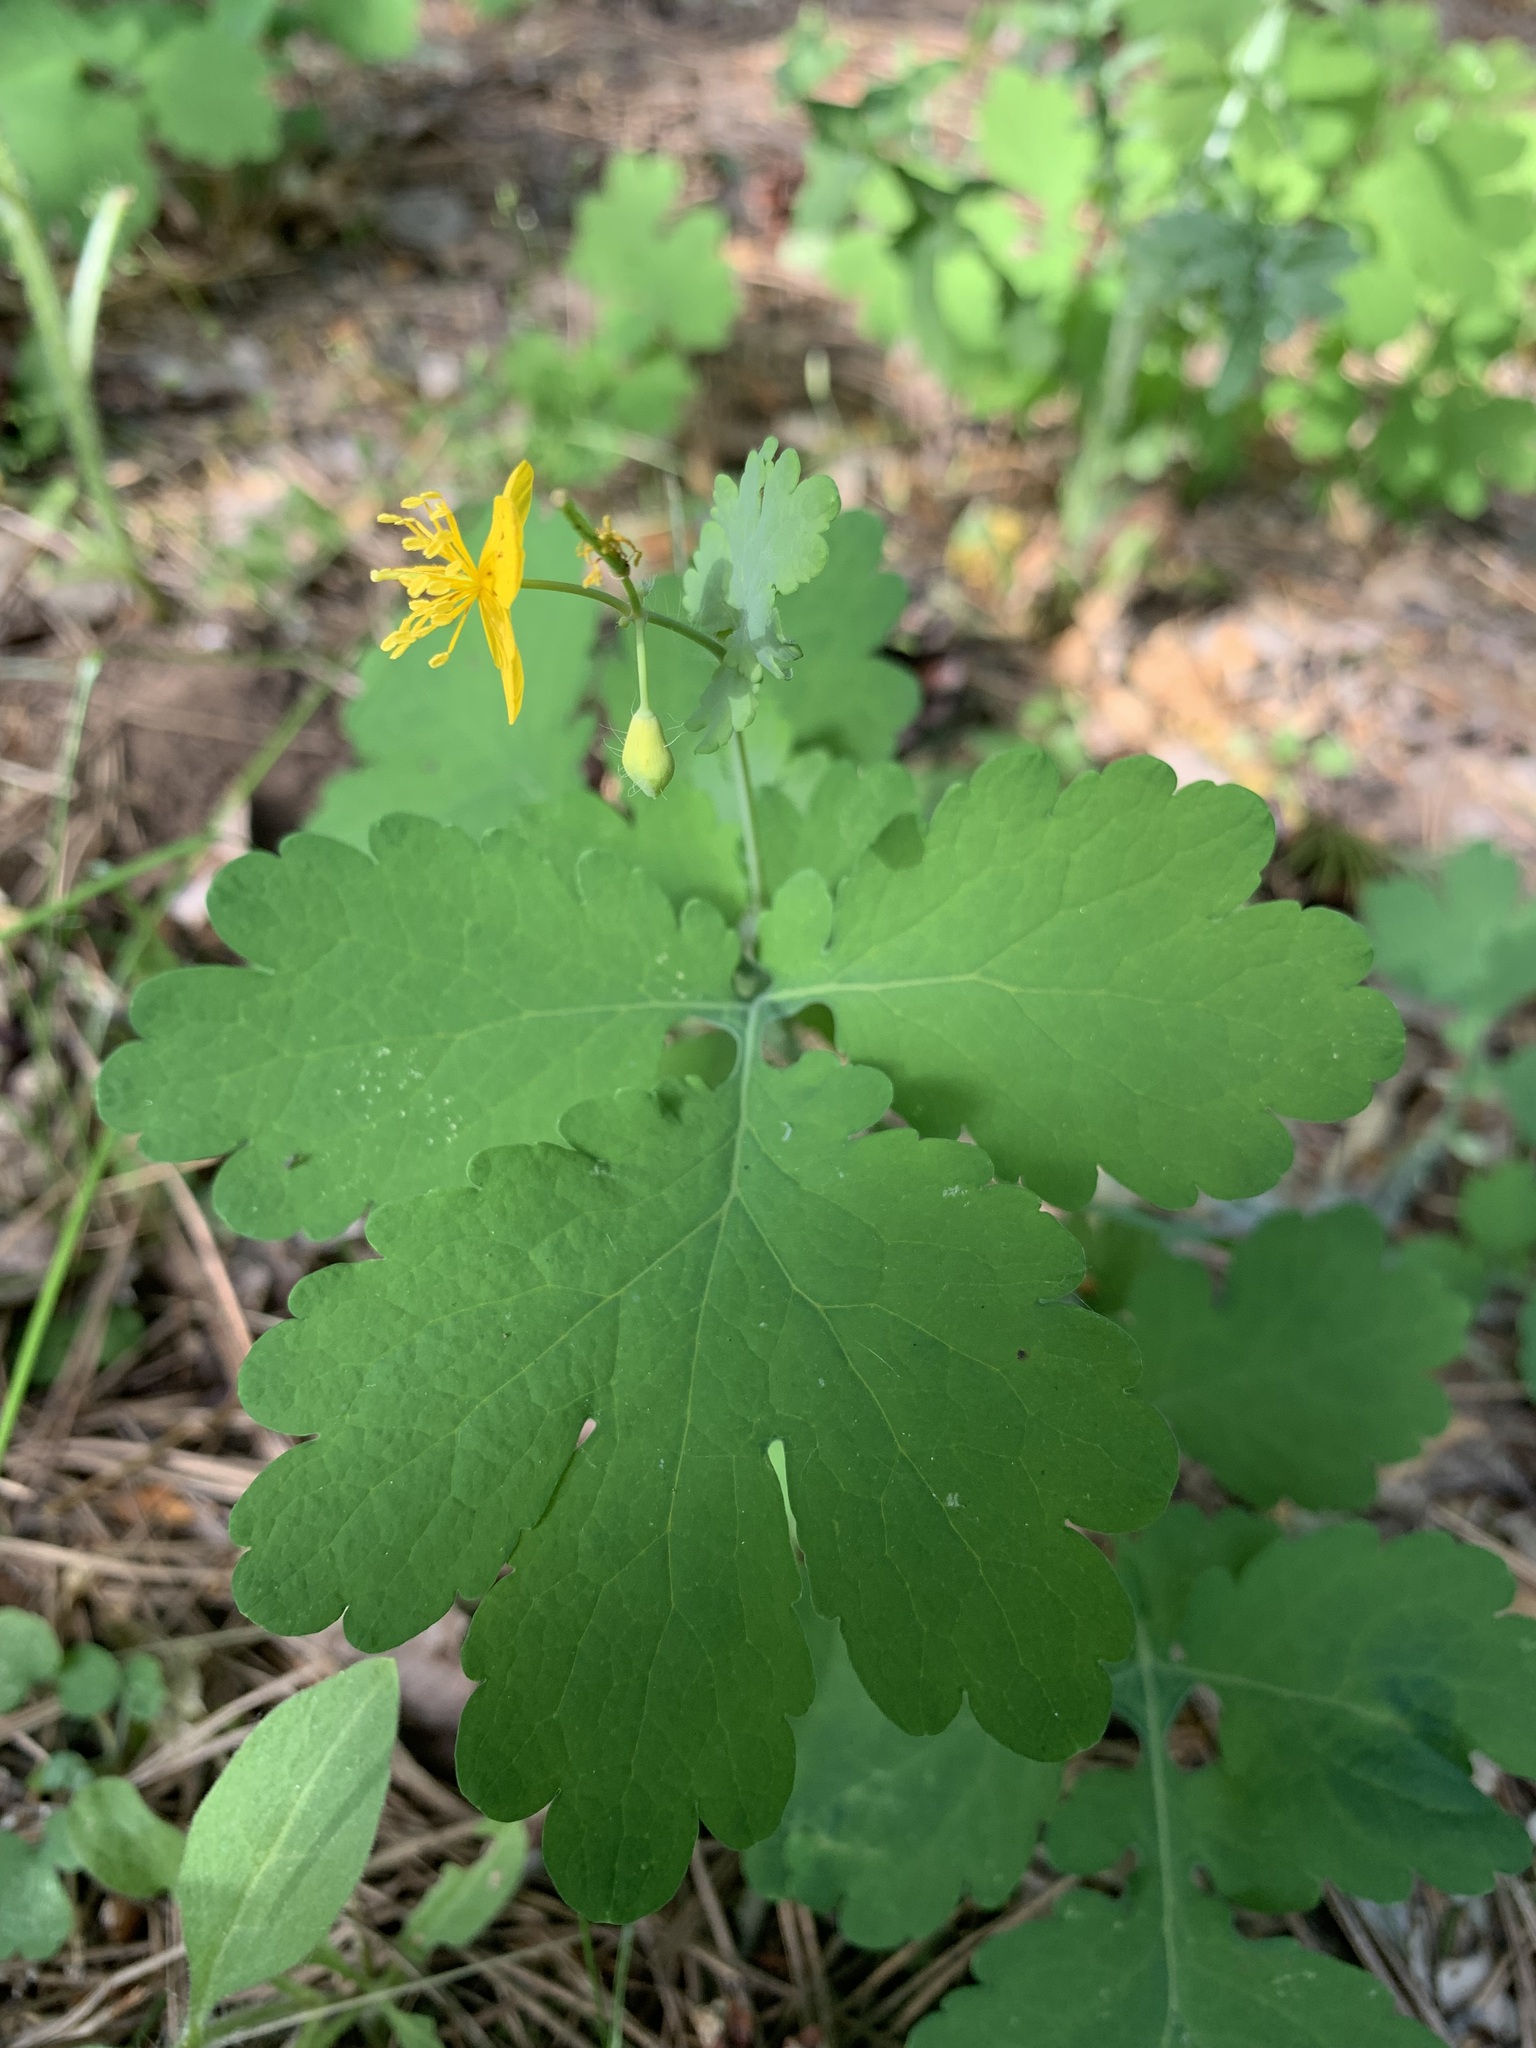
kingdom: Plantae
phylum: Tracheophyta
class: Magnoliopsida
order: Ranunculales
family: Papaveraceae
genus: Chelidonium
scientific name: Chelidonium majus
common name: Greater celandine
